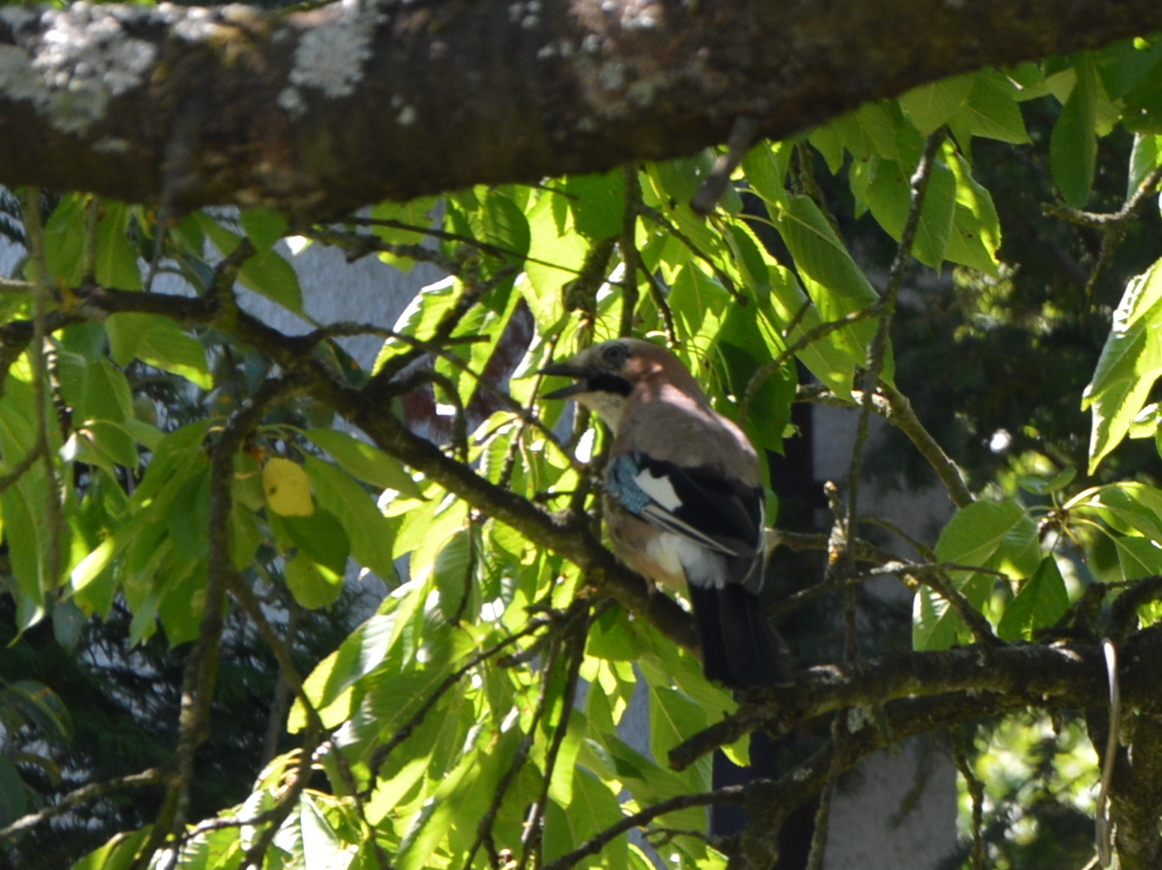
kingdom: Animalia
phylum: Chordata
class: Aves
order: Passeriformes
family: Corvidae
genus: Garrulus
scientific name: Garrulus glandarius
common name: Eurasian jay
